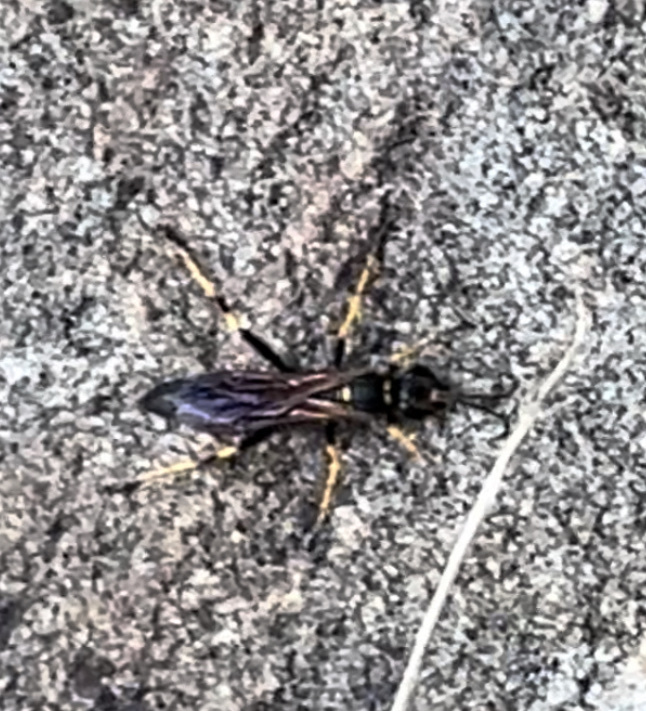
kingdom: Animalia
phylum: Arthropoda
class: Insecta
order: Hymenoptera
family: Sphecidae
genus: Sceliphron
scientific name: Sceliphron caementarium
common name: Mud dauber
